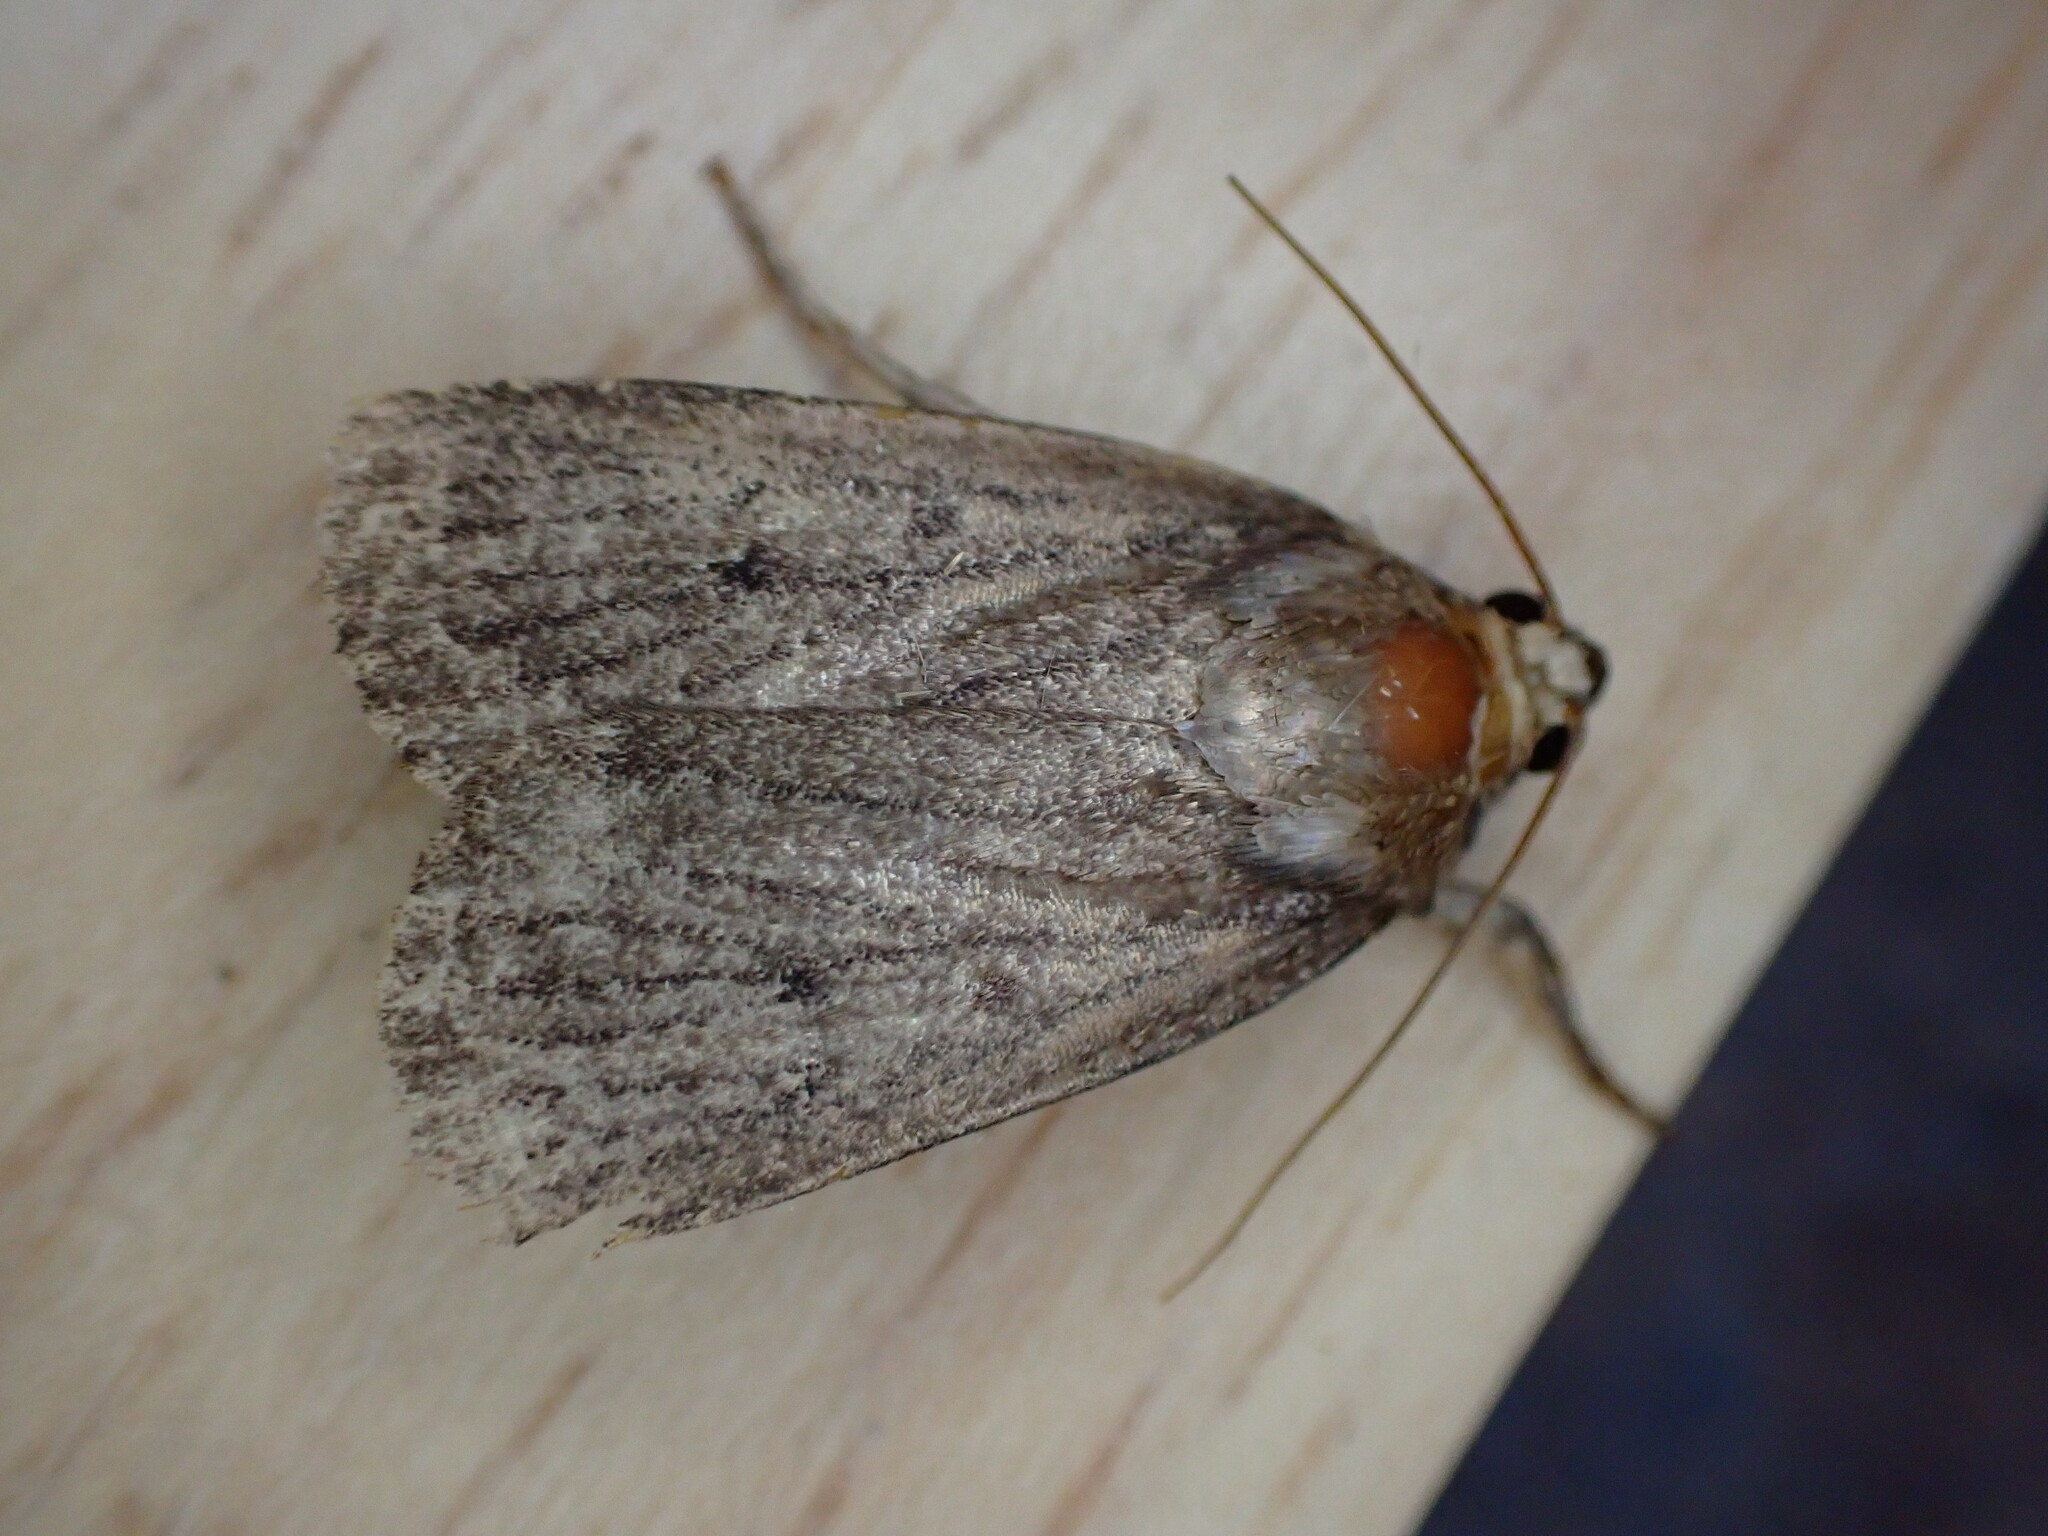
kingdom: Animalia
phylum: Arthropoda
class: Insecta
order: Lepidoptera
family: Noctuidae
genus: Amphipyra
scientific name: Amphipyra tragopoginis
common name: Mouse moth
